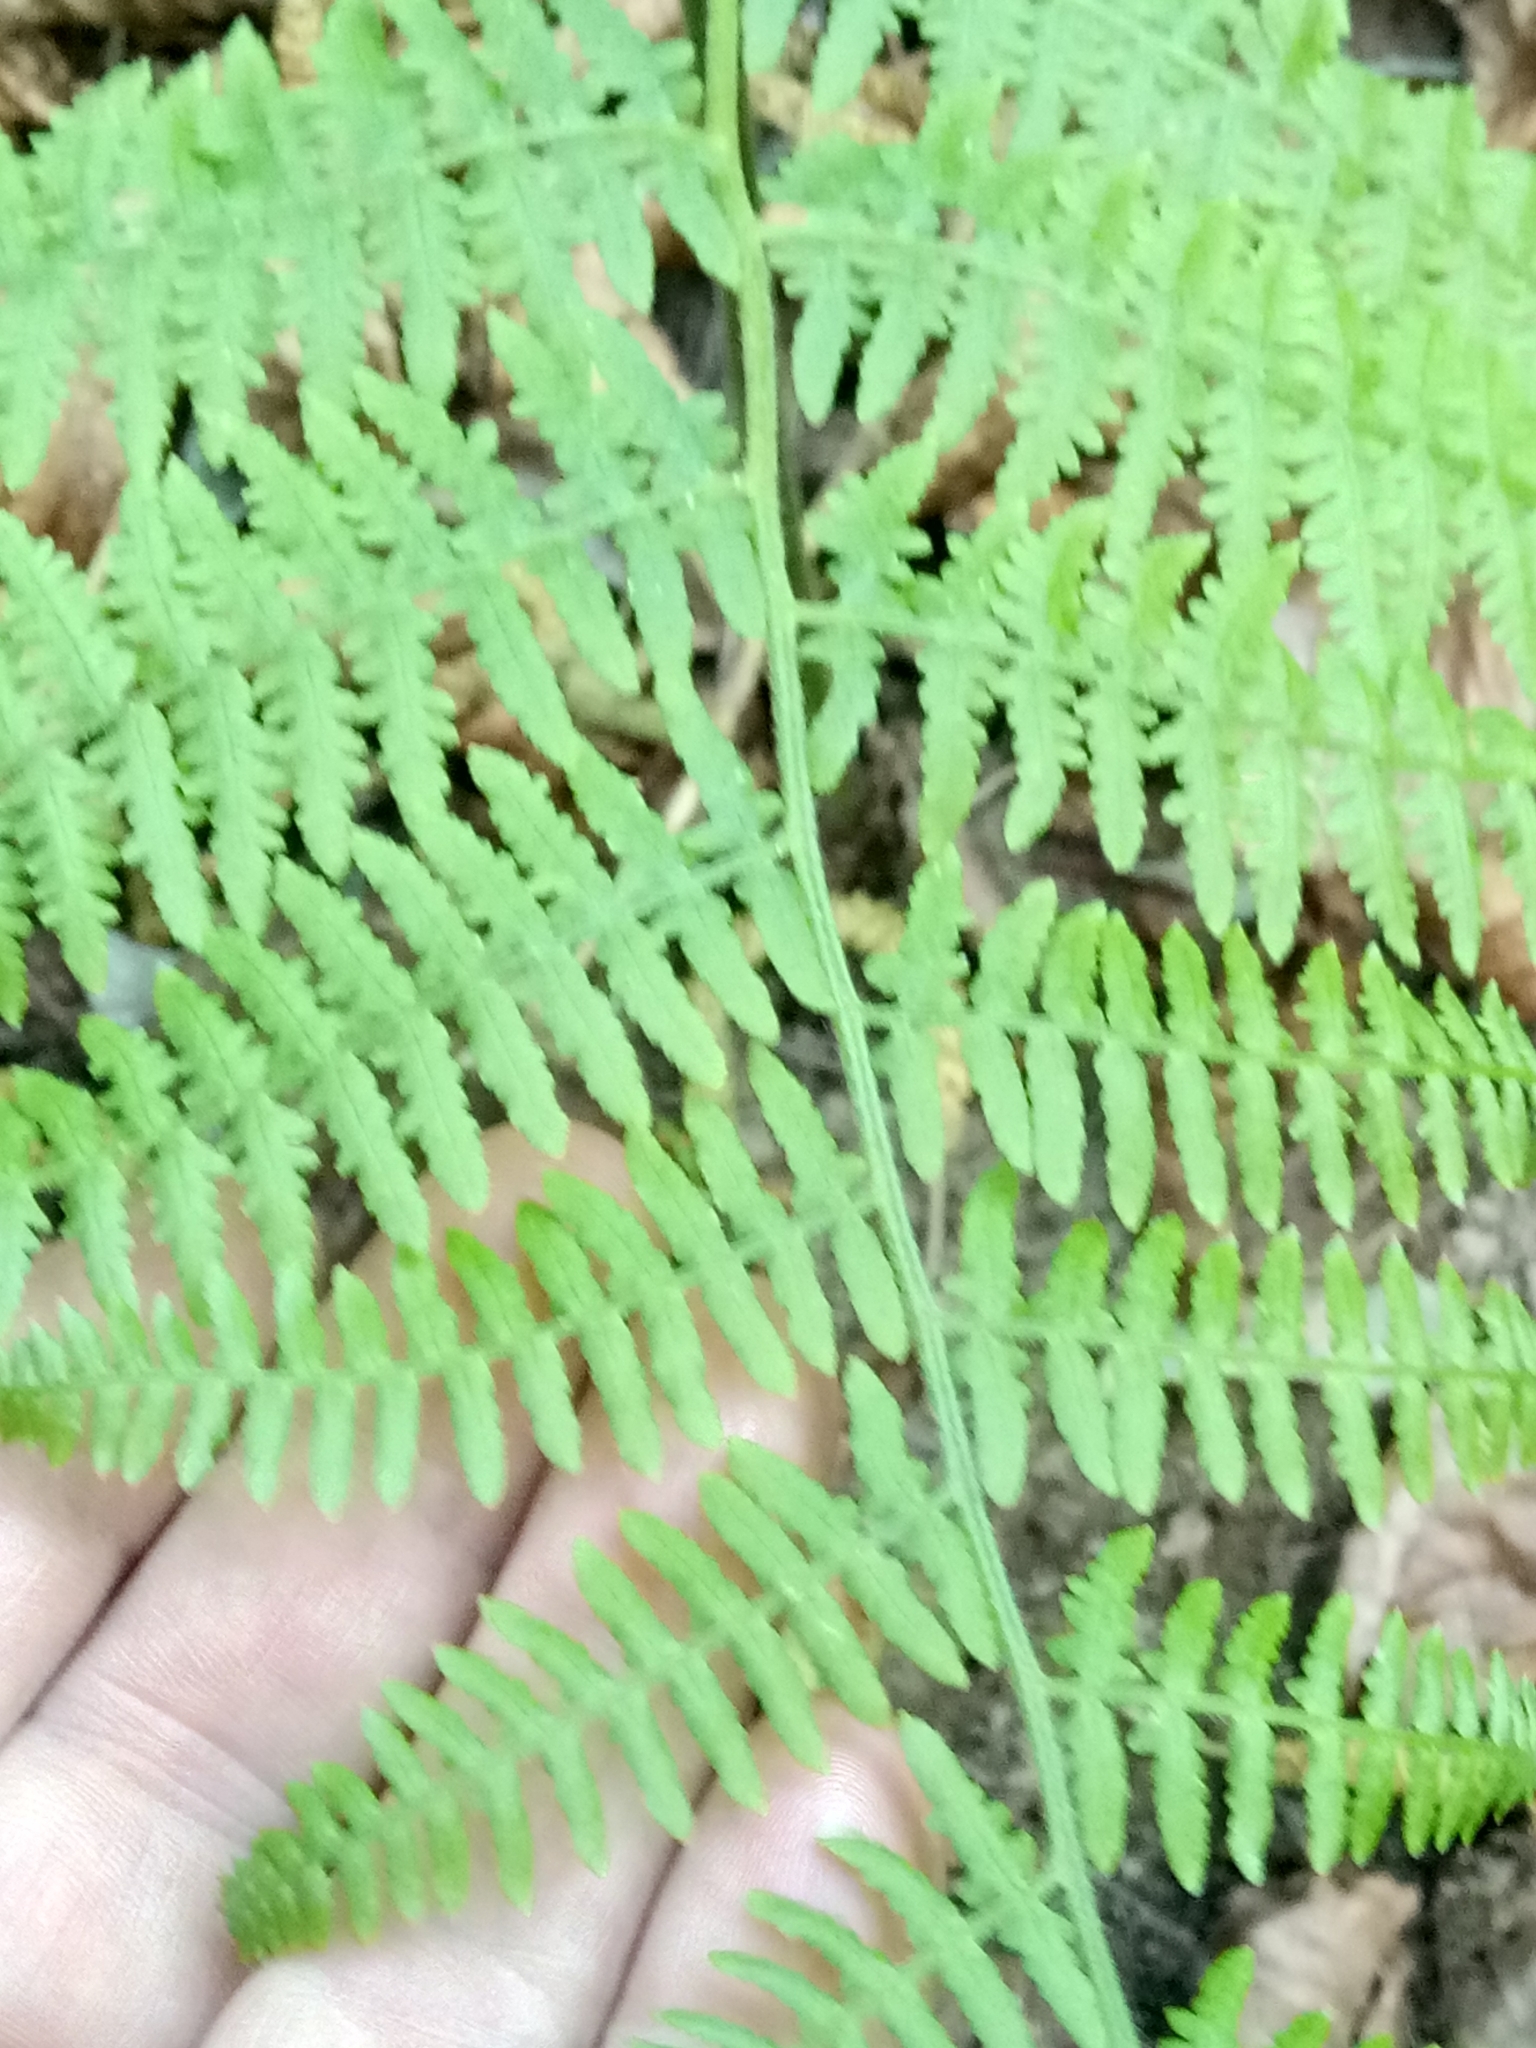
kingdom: Plantae
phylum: Tracheophyta
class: Polypodiopsida
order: Polypodiales
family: Dennstaedtiaceae
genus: Pteridium
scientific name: Pteridium aquilinum
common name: Bracken
